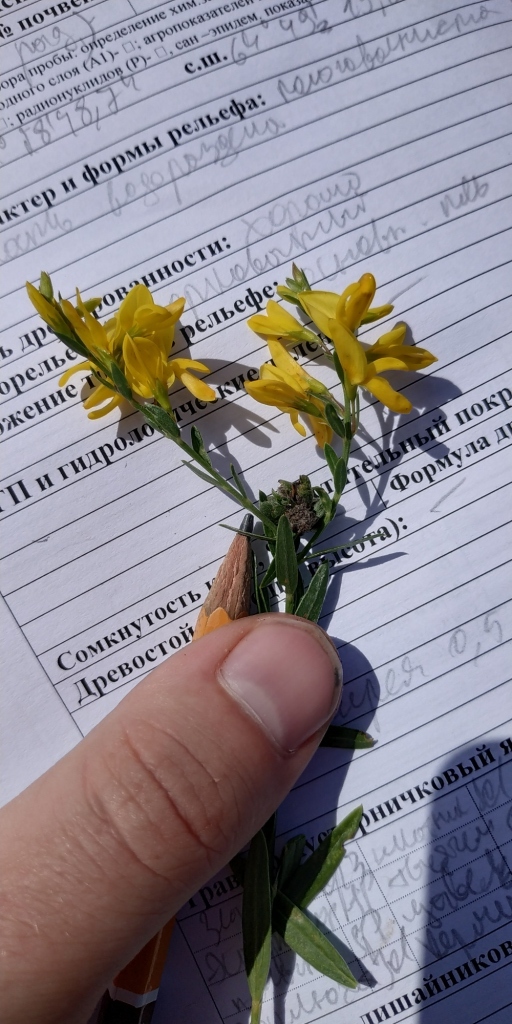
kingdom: Plantae
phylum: Tracheophyta
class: Magnoliopsida
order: Fabales
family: Fabaceae
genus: Genista
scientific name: Genista tinctoria
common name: Dyer's greenweed
